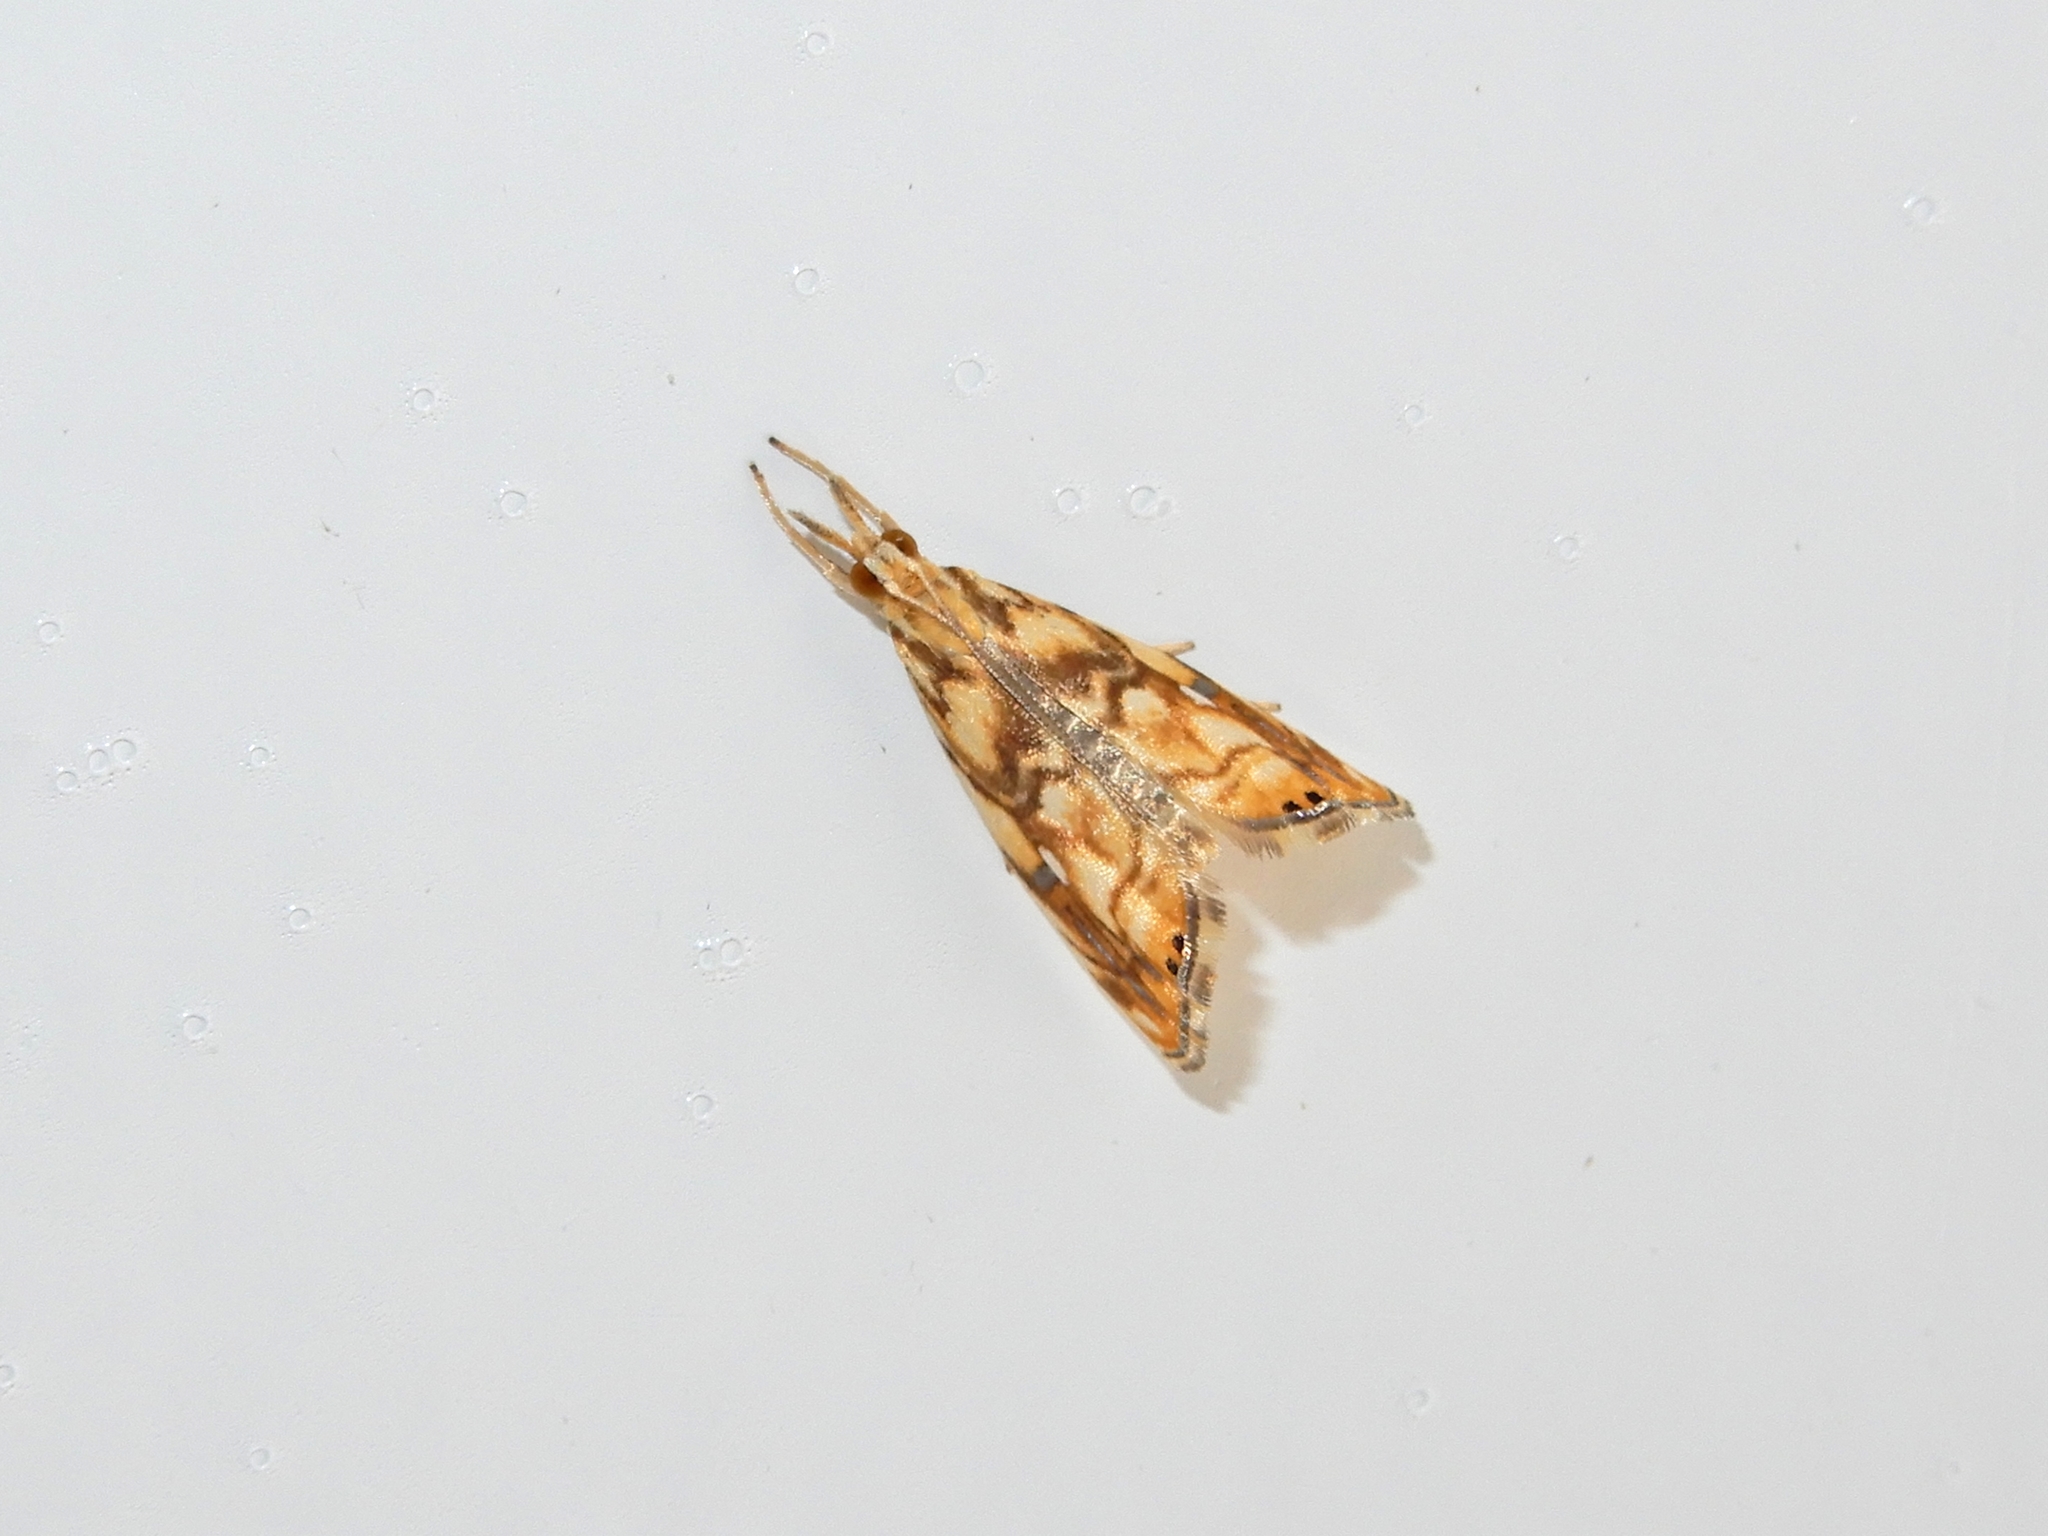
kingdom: Animalia
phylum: Arthropoda
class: Insecta
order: Lepidoptera
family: Crambidae
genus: Glaucocharis
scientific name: Glaucocharis selenaea
